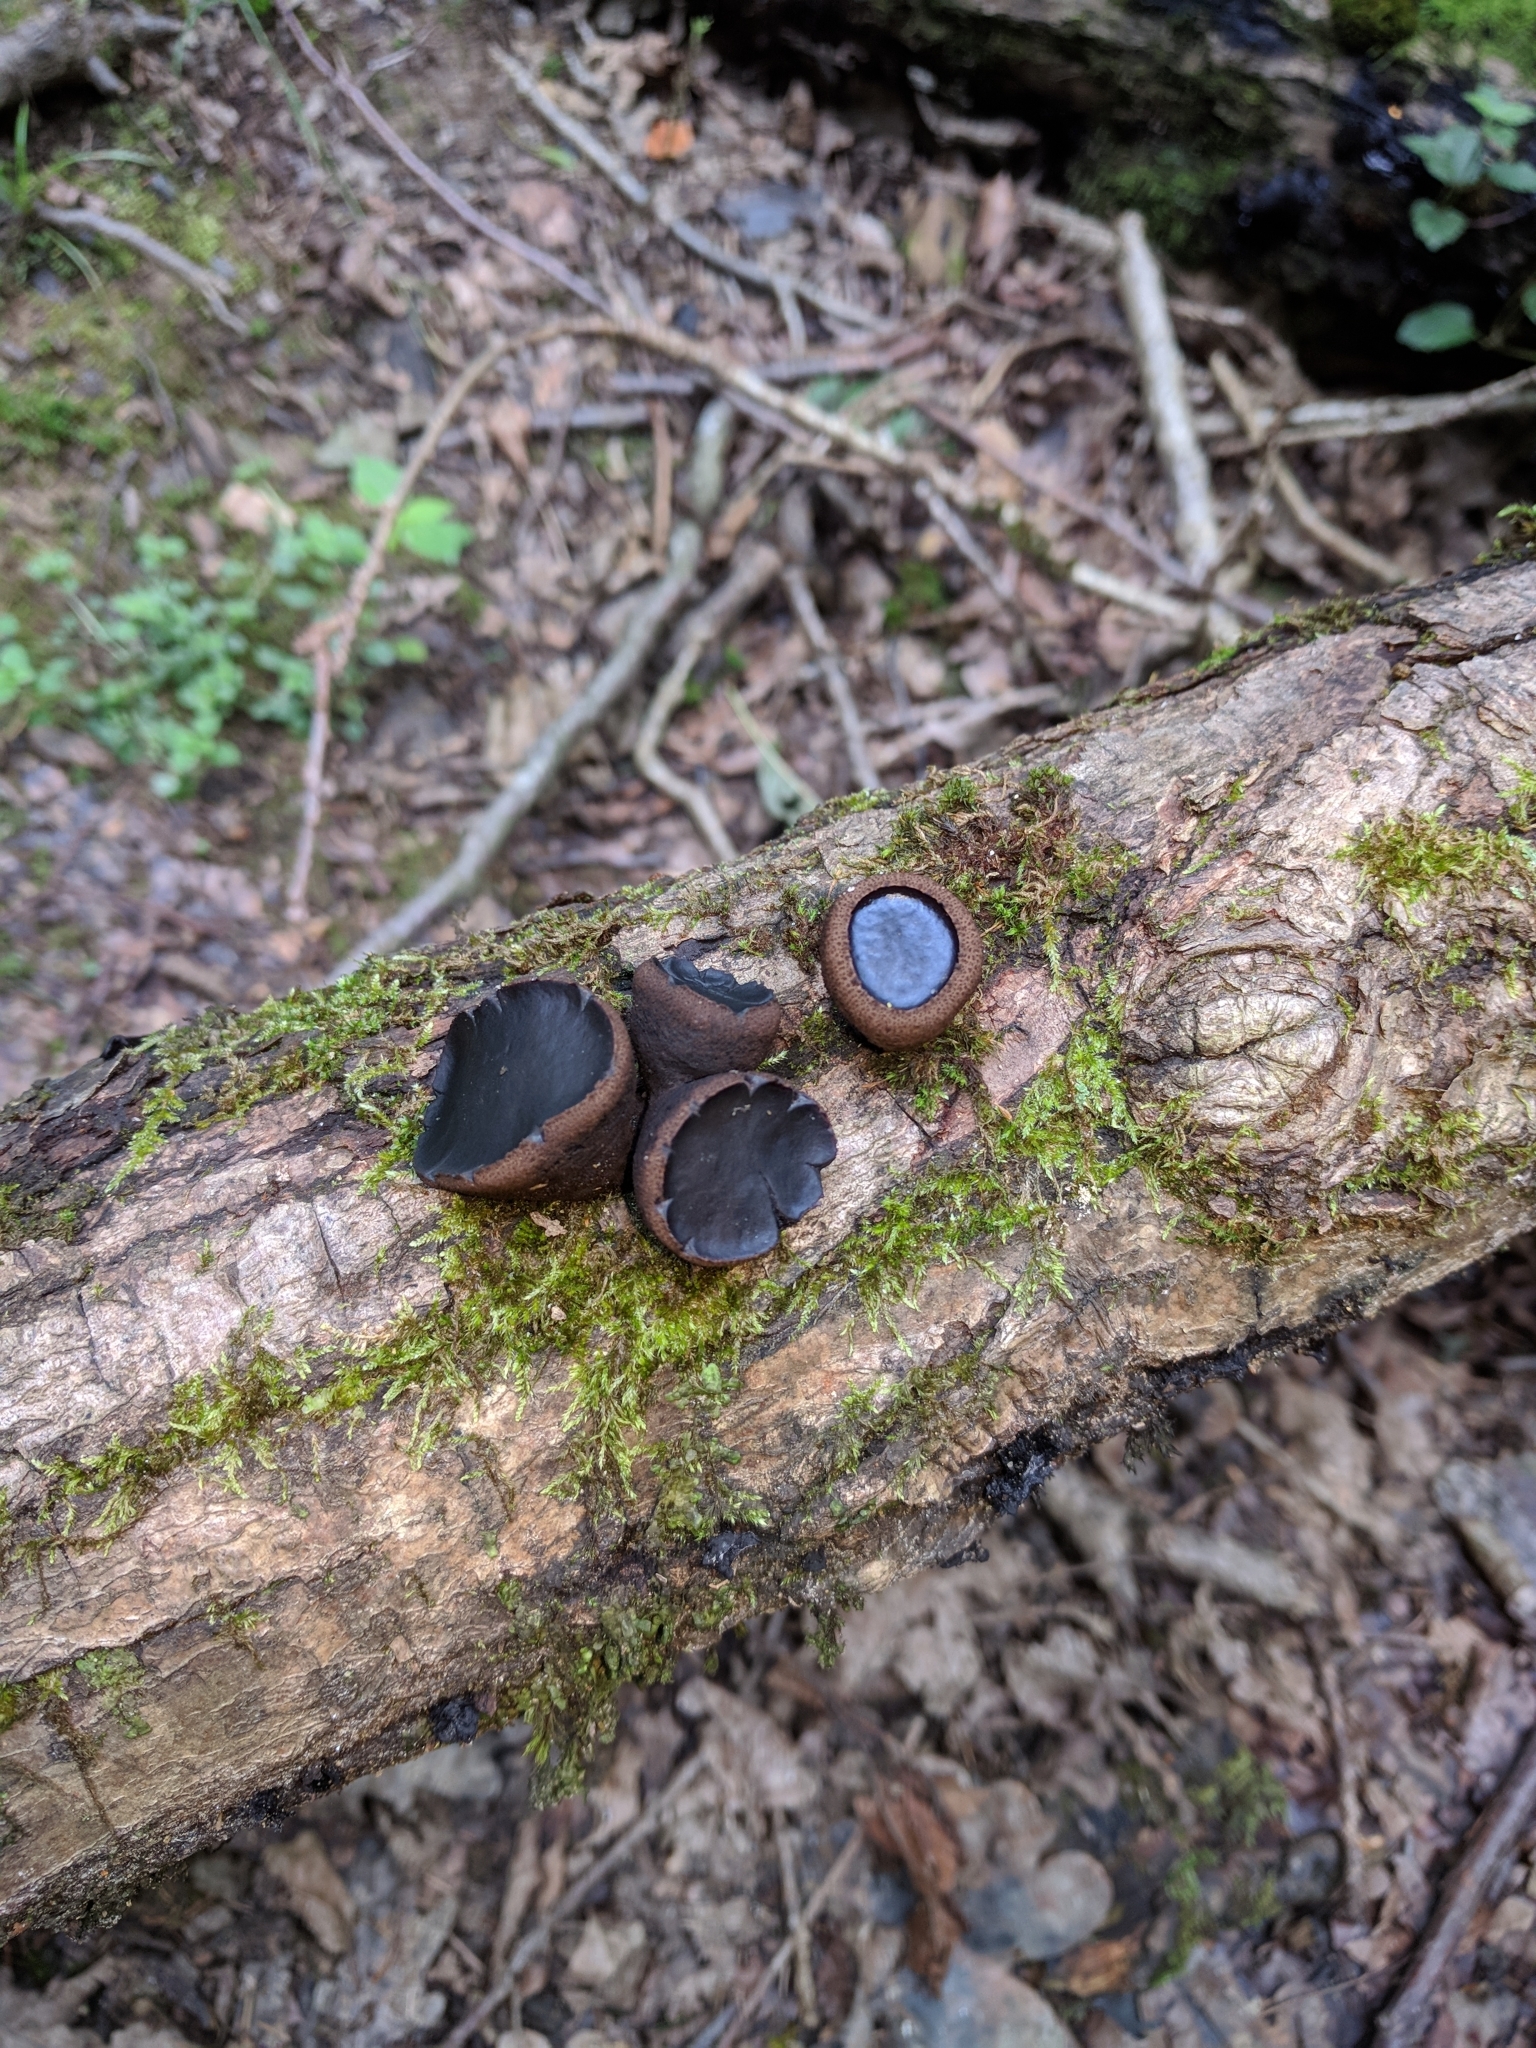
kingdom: Fungi
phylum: Ascomycota
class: Leotiomycetes
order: Phacidiales
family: Phacidiaceae
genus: Bulgaria
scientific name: Bulgaria inquinans
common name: Black bulgar
